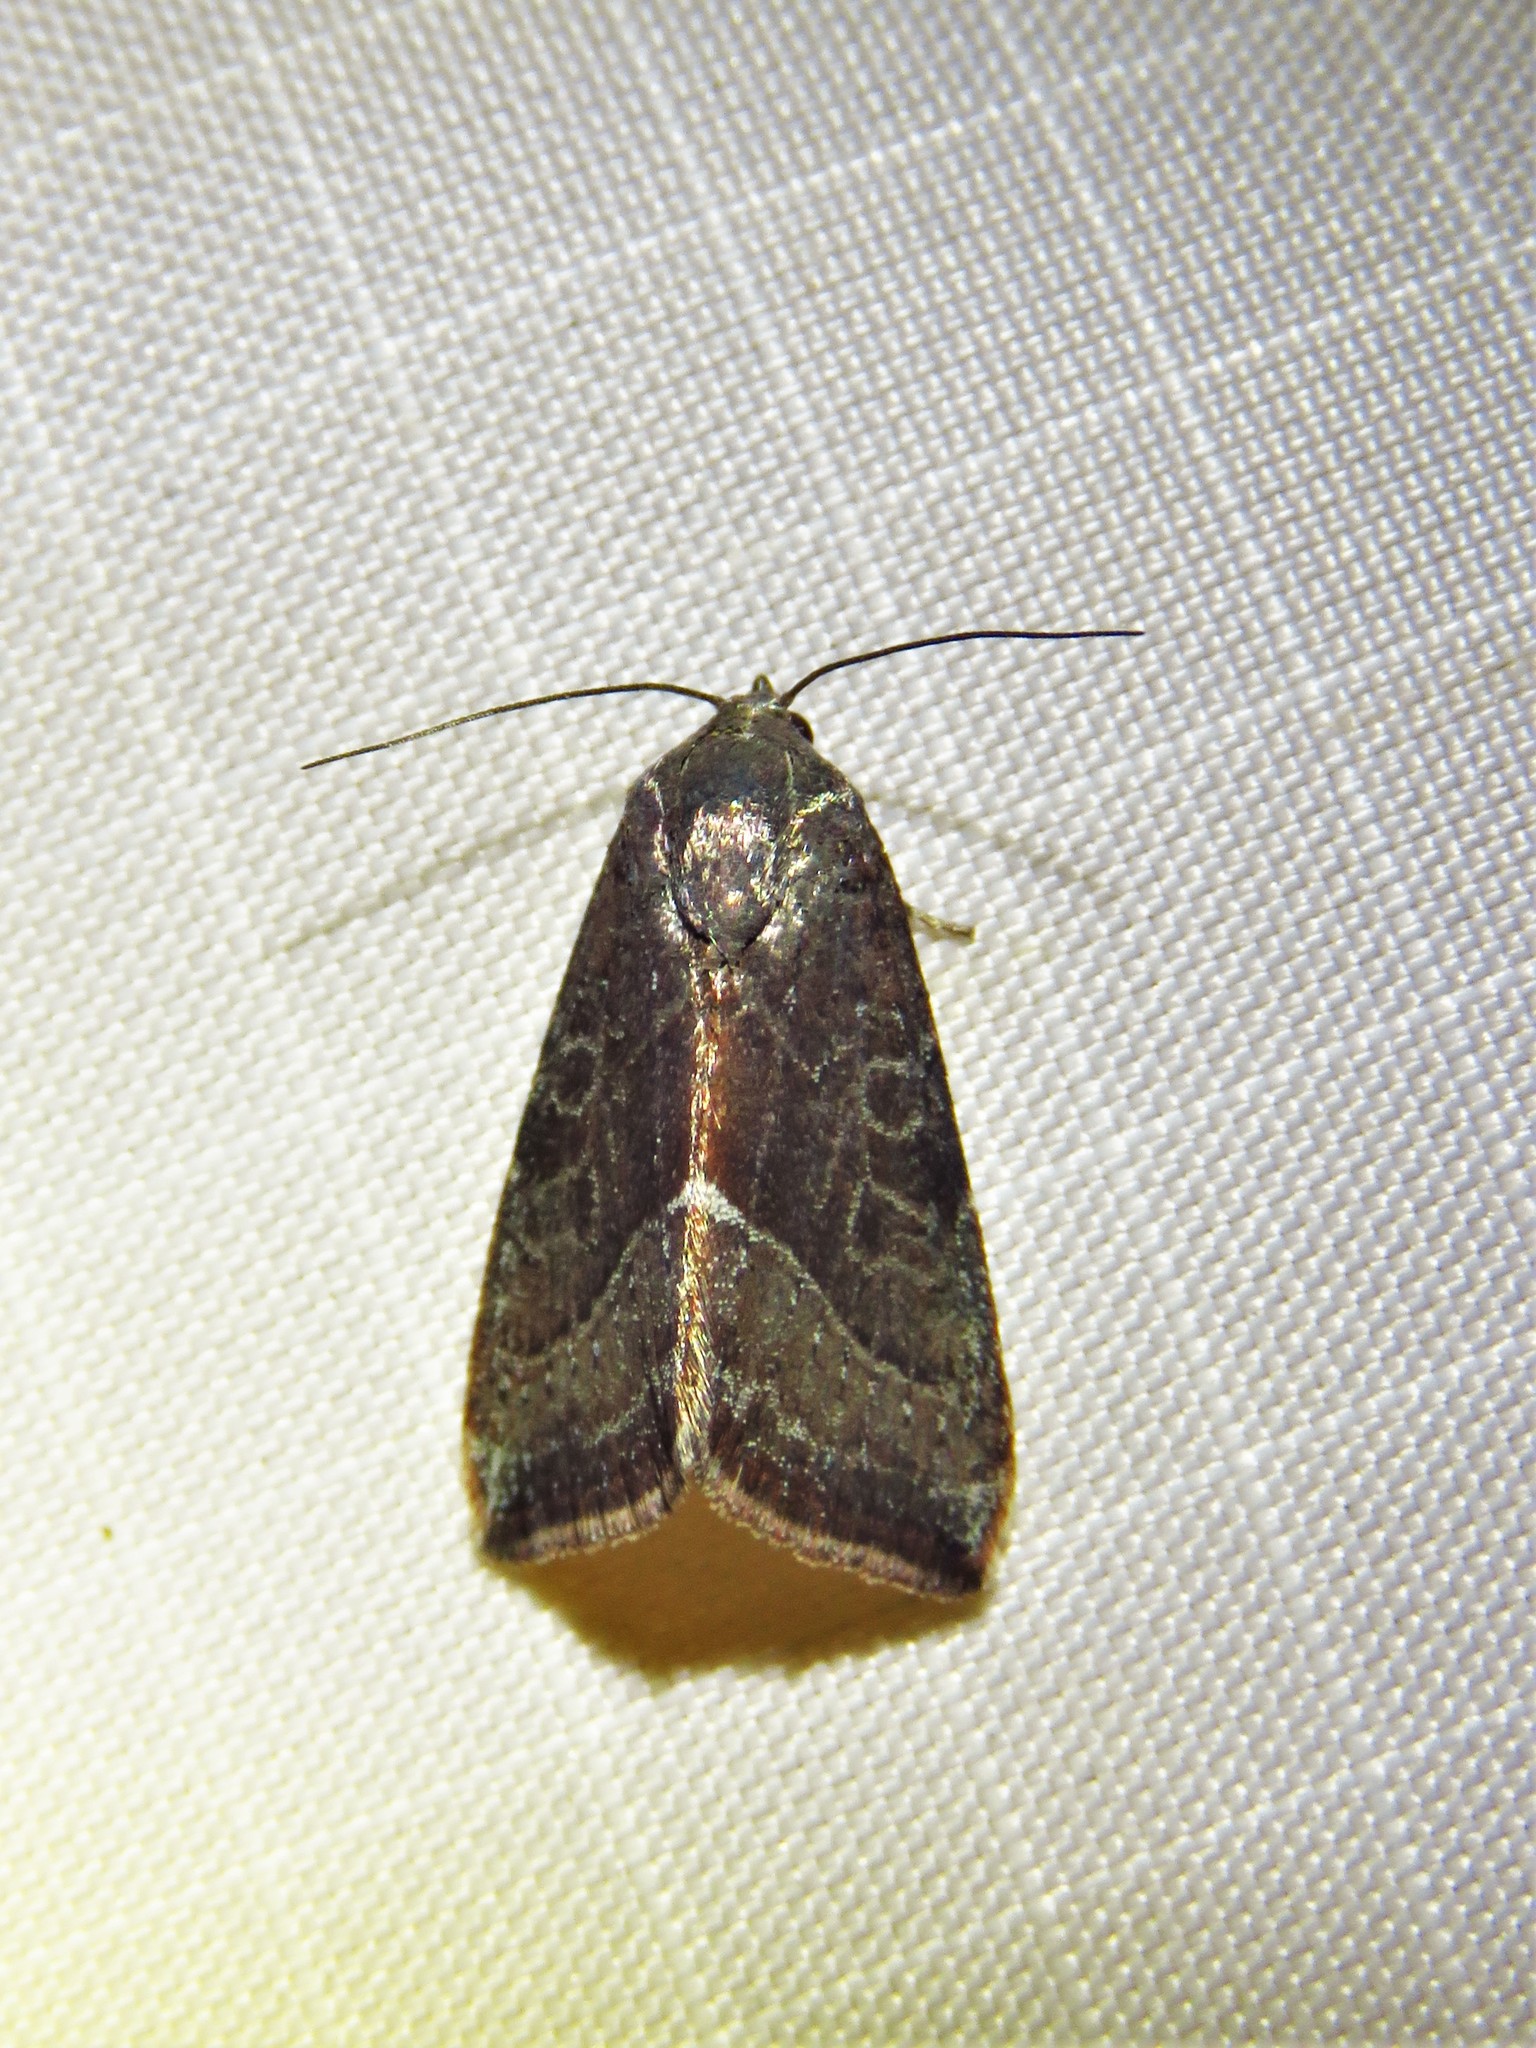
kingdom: Animalia
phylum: Arthropoda
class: Insecta
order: Lepidoptera
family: Noctuidae
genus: Galgula
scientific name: Galgula partita
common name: Wedgeling
